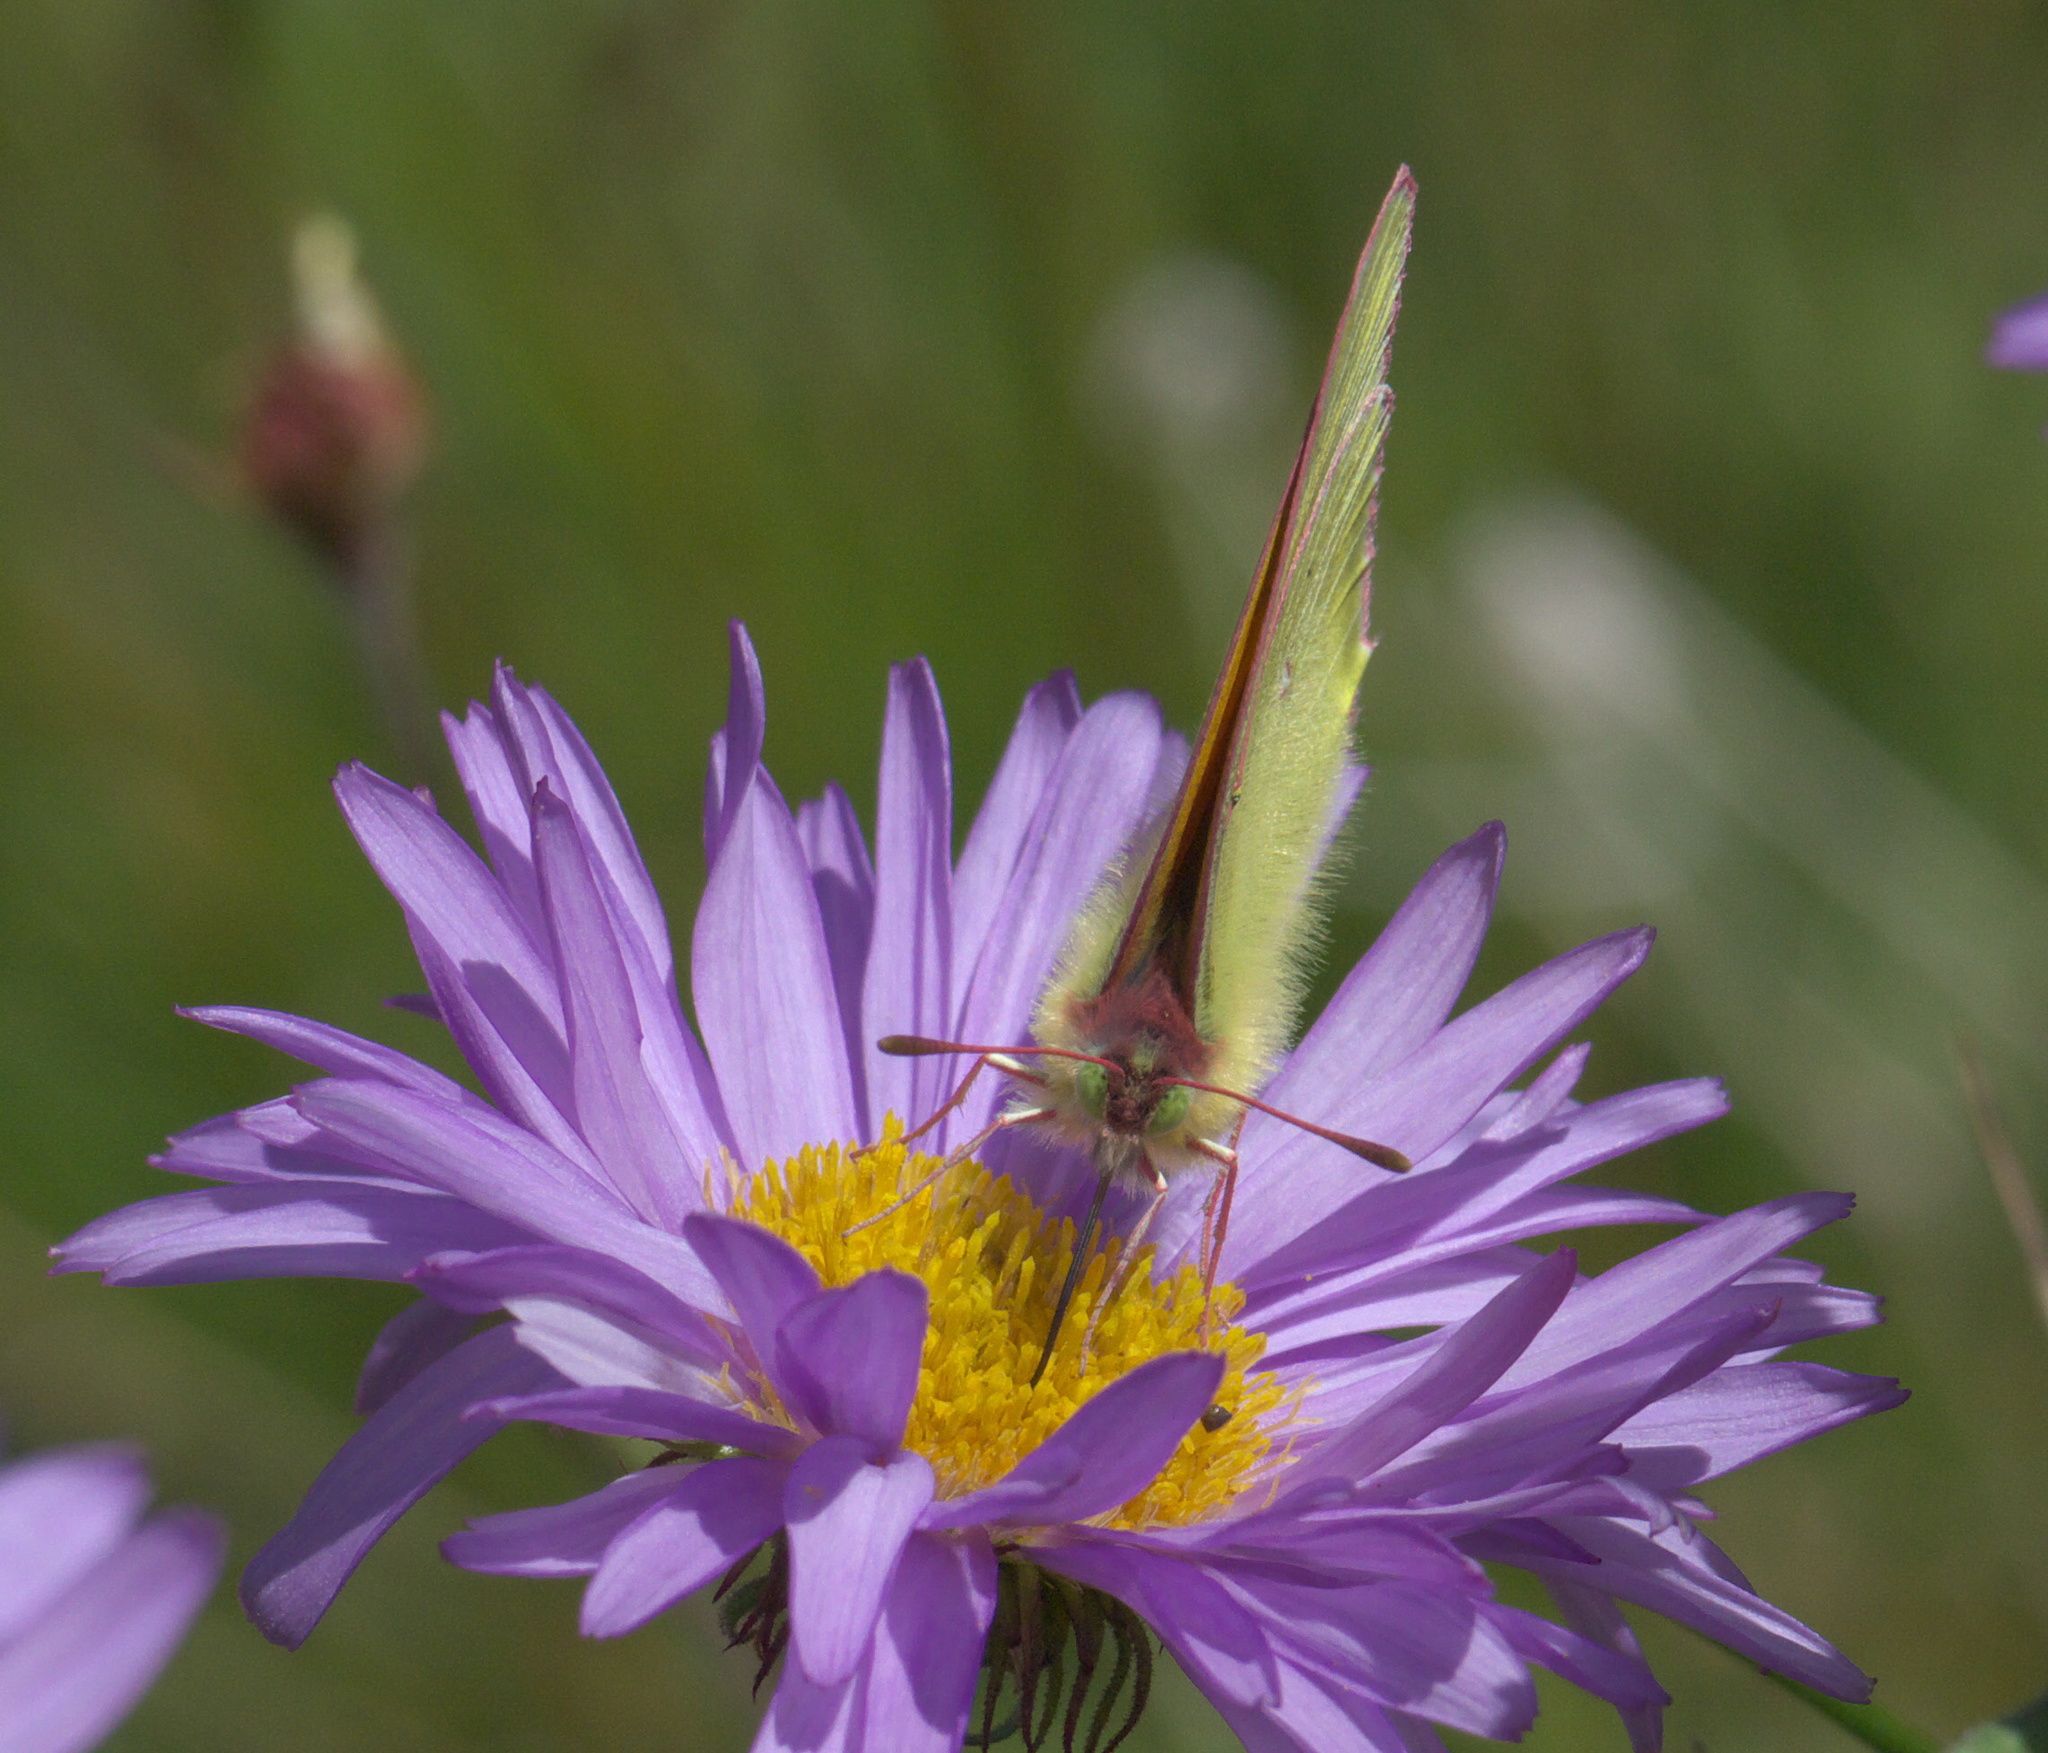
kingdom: Animalia
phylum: Arthropoda
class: Insecta
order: Lepidoptera
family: Pieridae
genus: Colias
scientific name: Colias meadii
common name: Mead's sulphur
